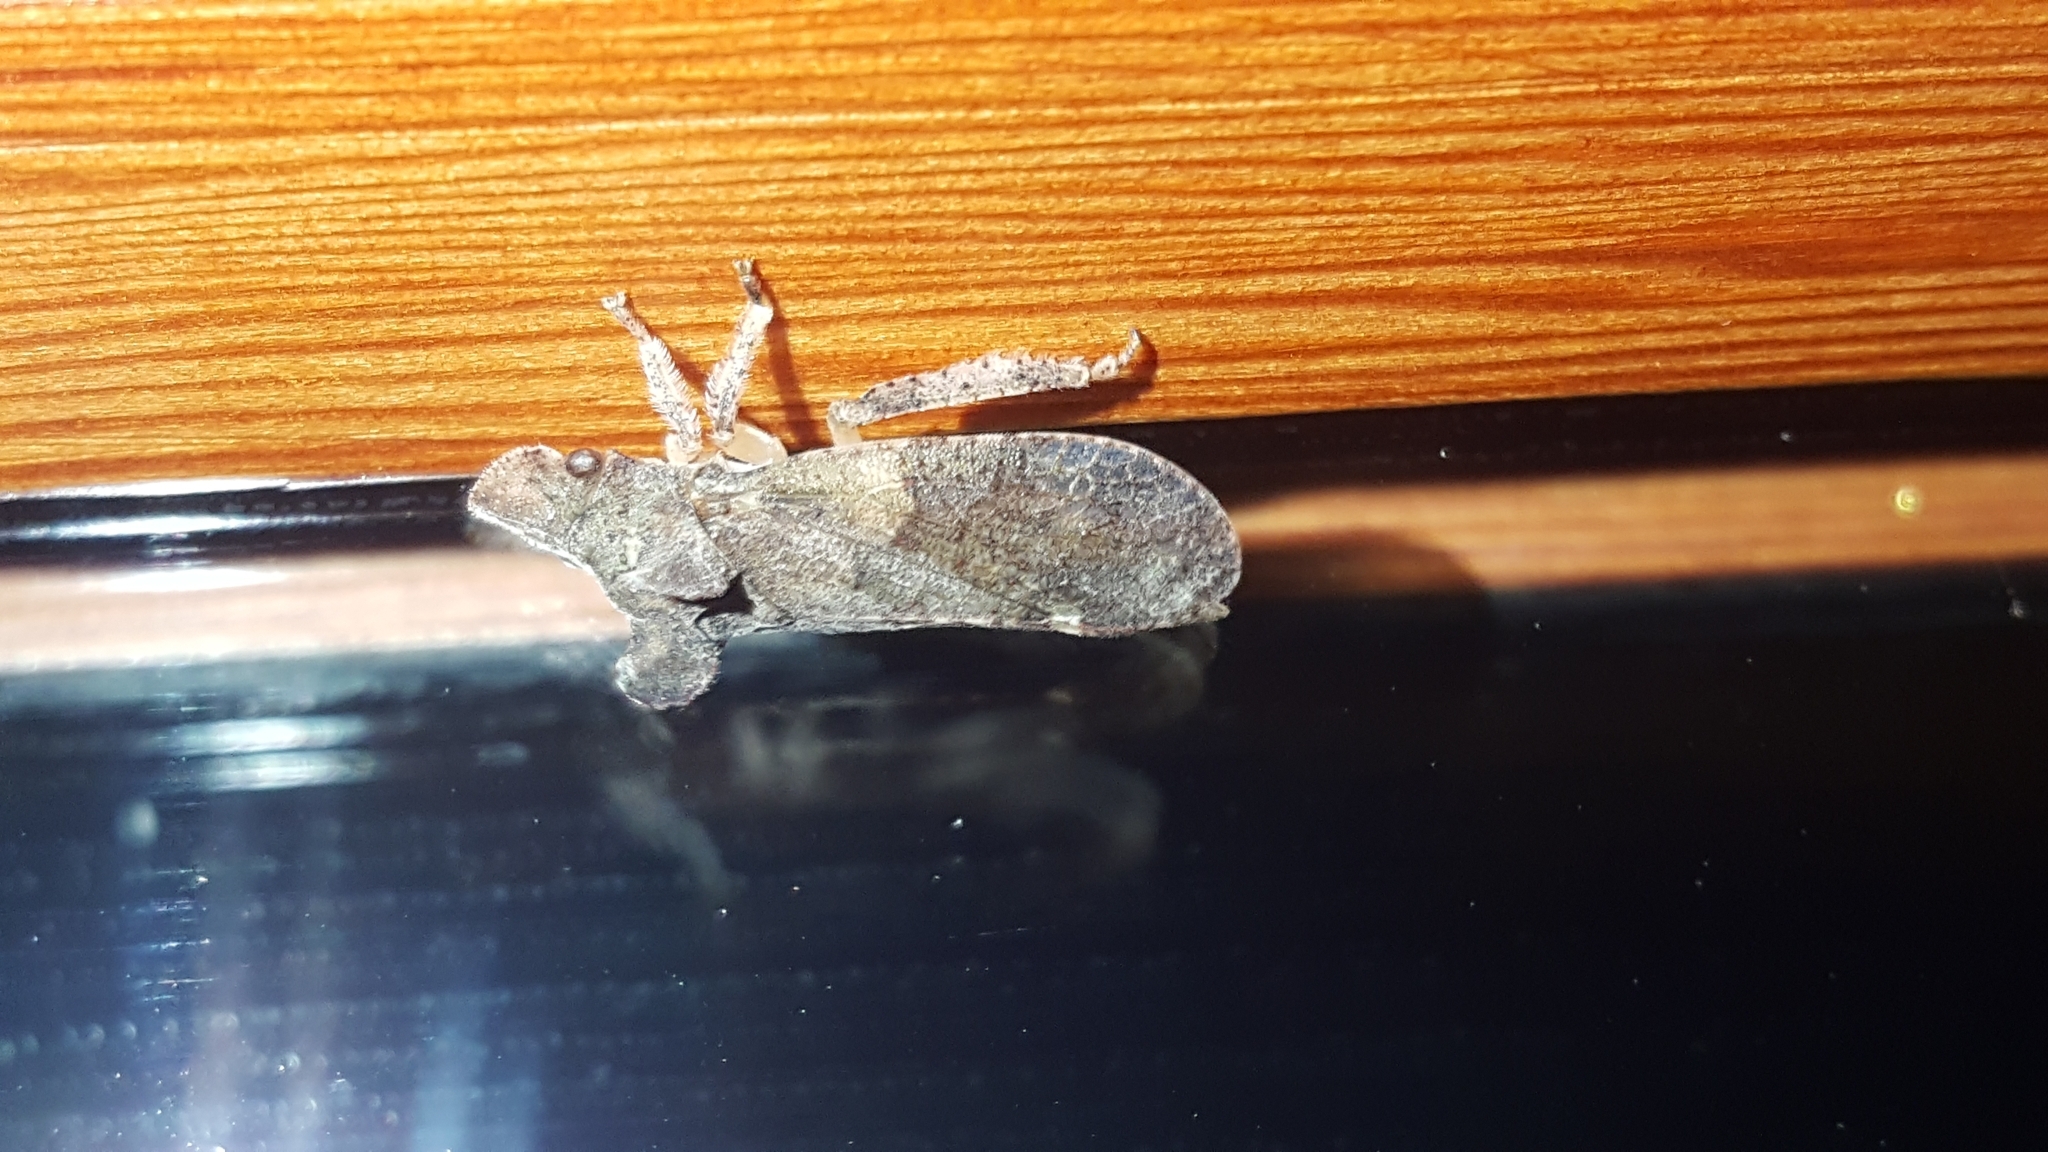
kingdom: Animalia
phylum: Arthropoda
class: Insecta
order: Hemiptera
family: Cicadellidae
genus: Ledra
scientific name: Ledra aurita
